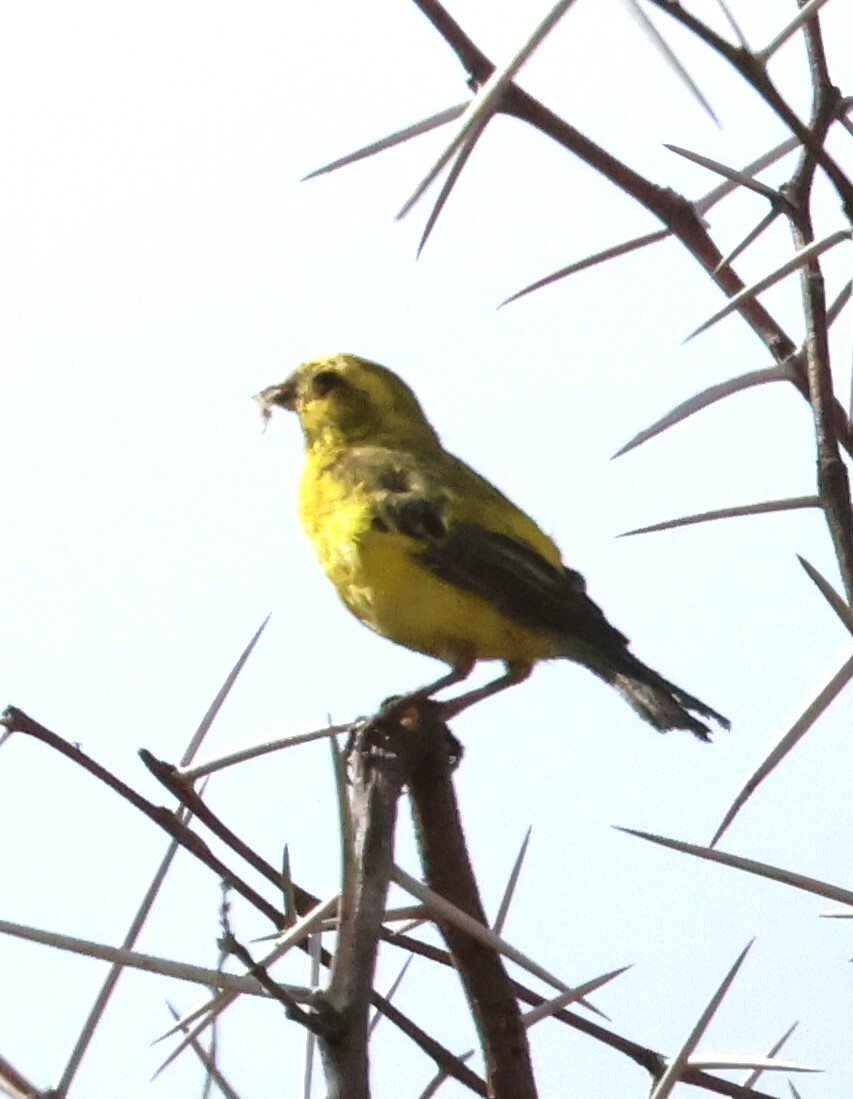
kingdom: Animalia
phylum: Chordata
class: Aves
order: Passeriformes
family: Fringillidae
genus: Crithagra
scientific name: Crithagra flaviventris
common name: Yellow canary
